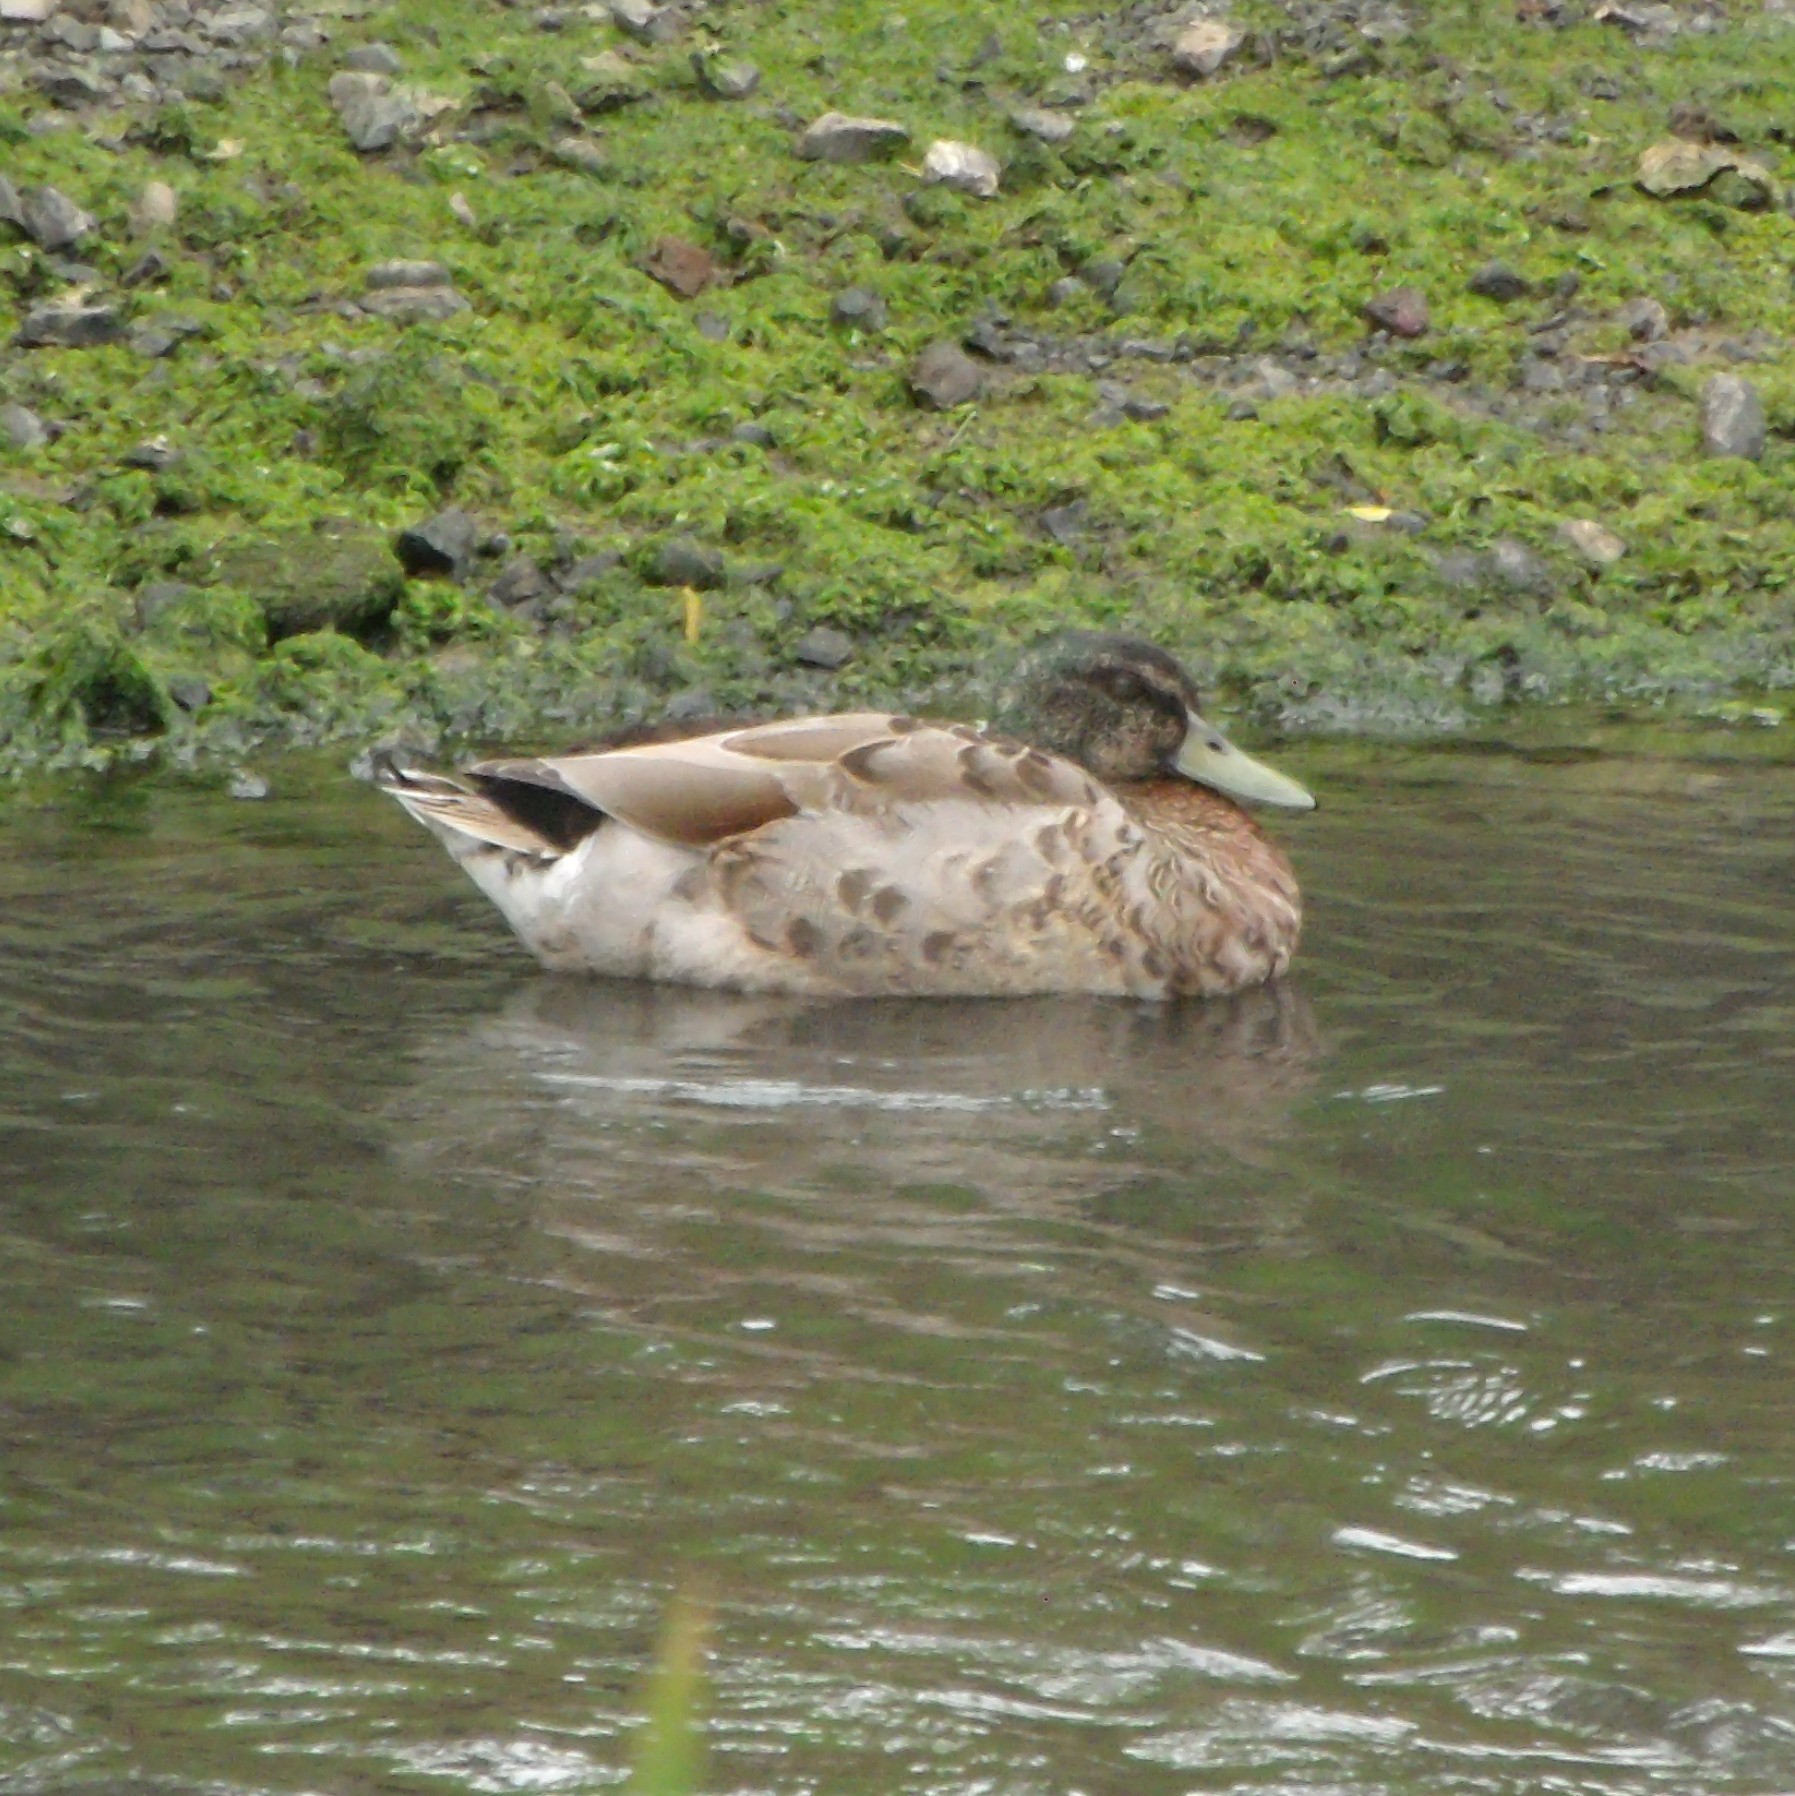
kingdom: Animalia
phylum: Chordata
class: Aves
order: Anseriformes
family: Anatidae
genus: Anas
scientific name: Anas
